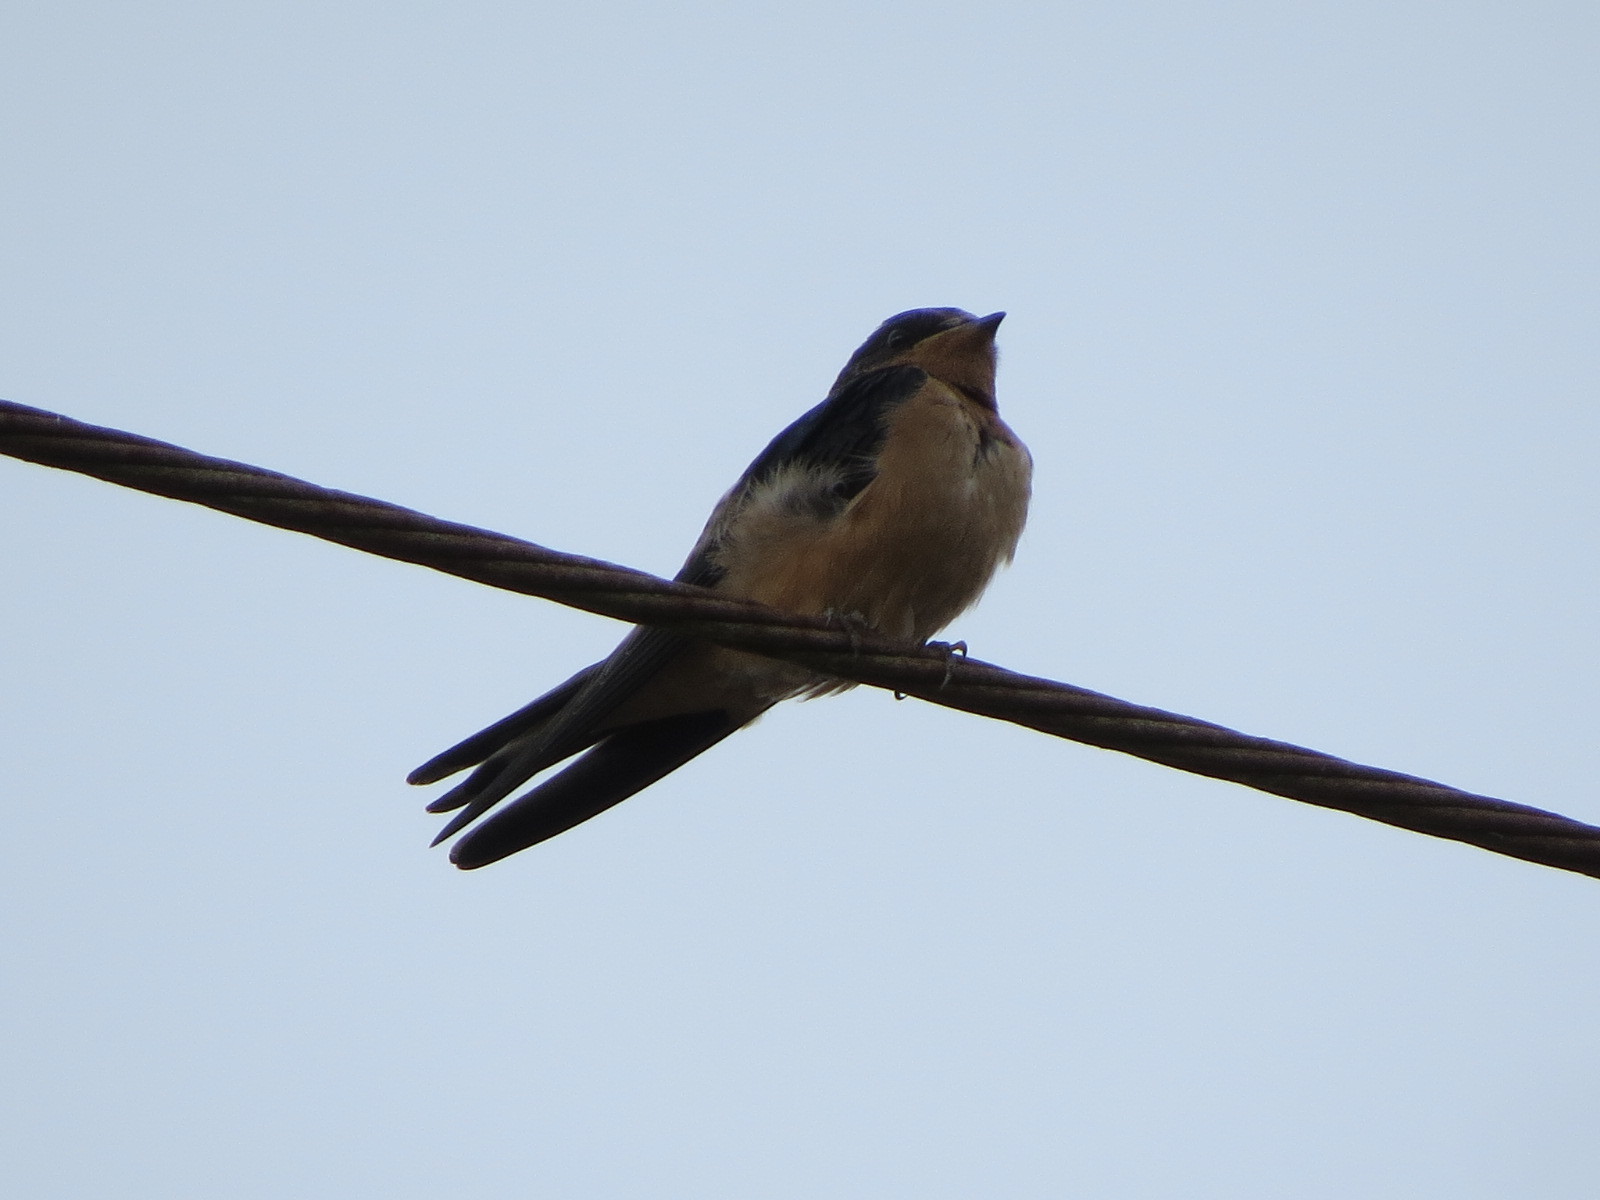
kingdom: Animalia
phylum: Chordata
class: Aves
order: Passeriformes
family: Hirundinidae
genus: Hirundo
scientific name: Hirundo rustica
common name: Barn swallow
